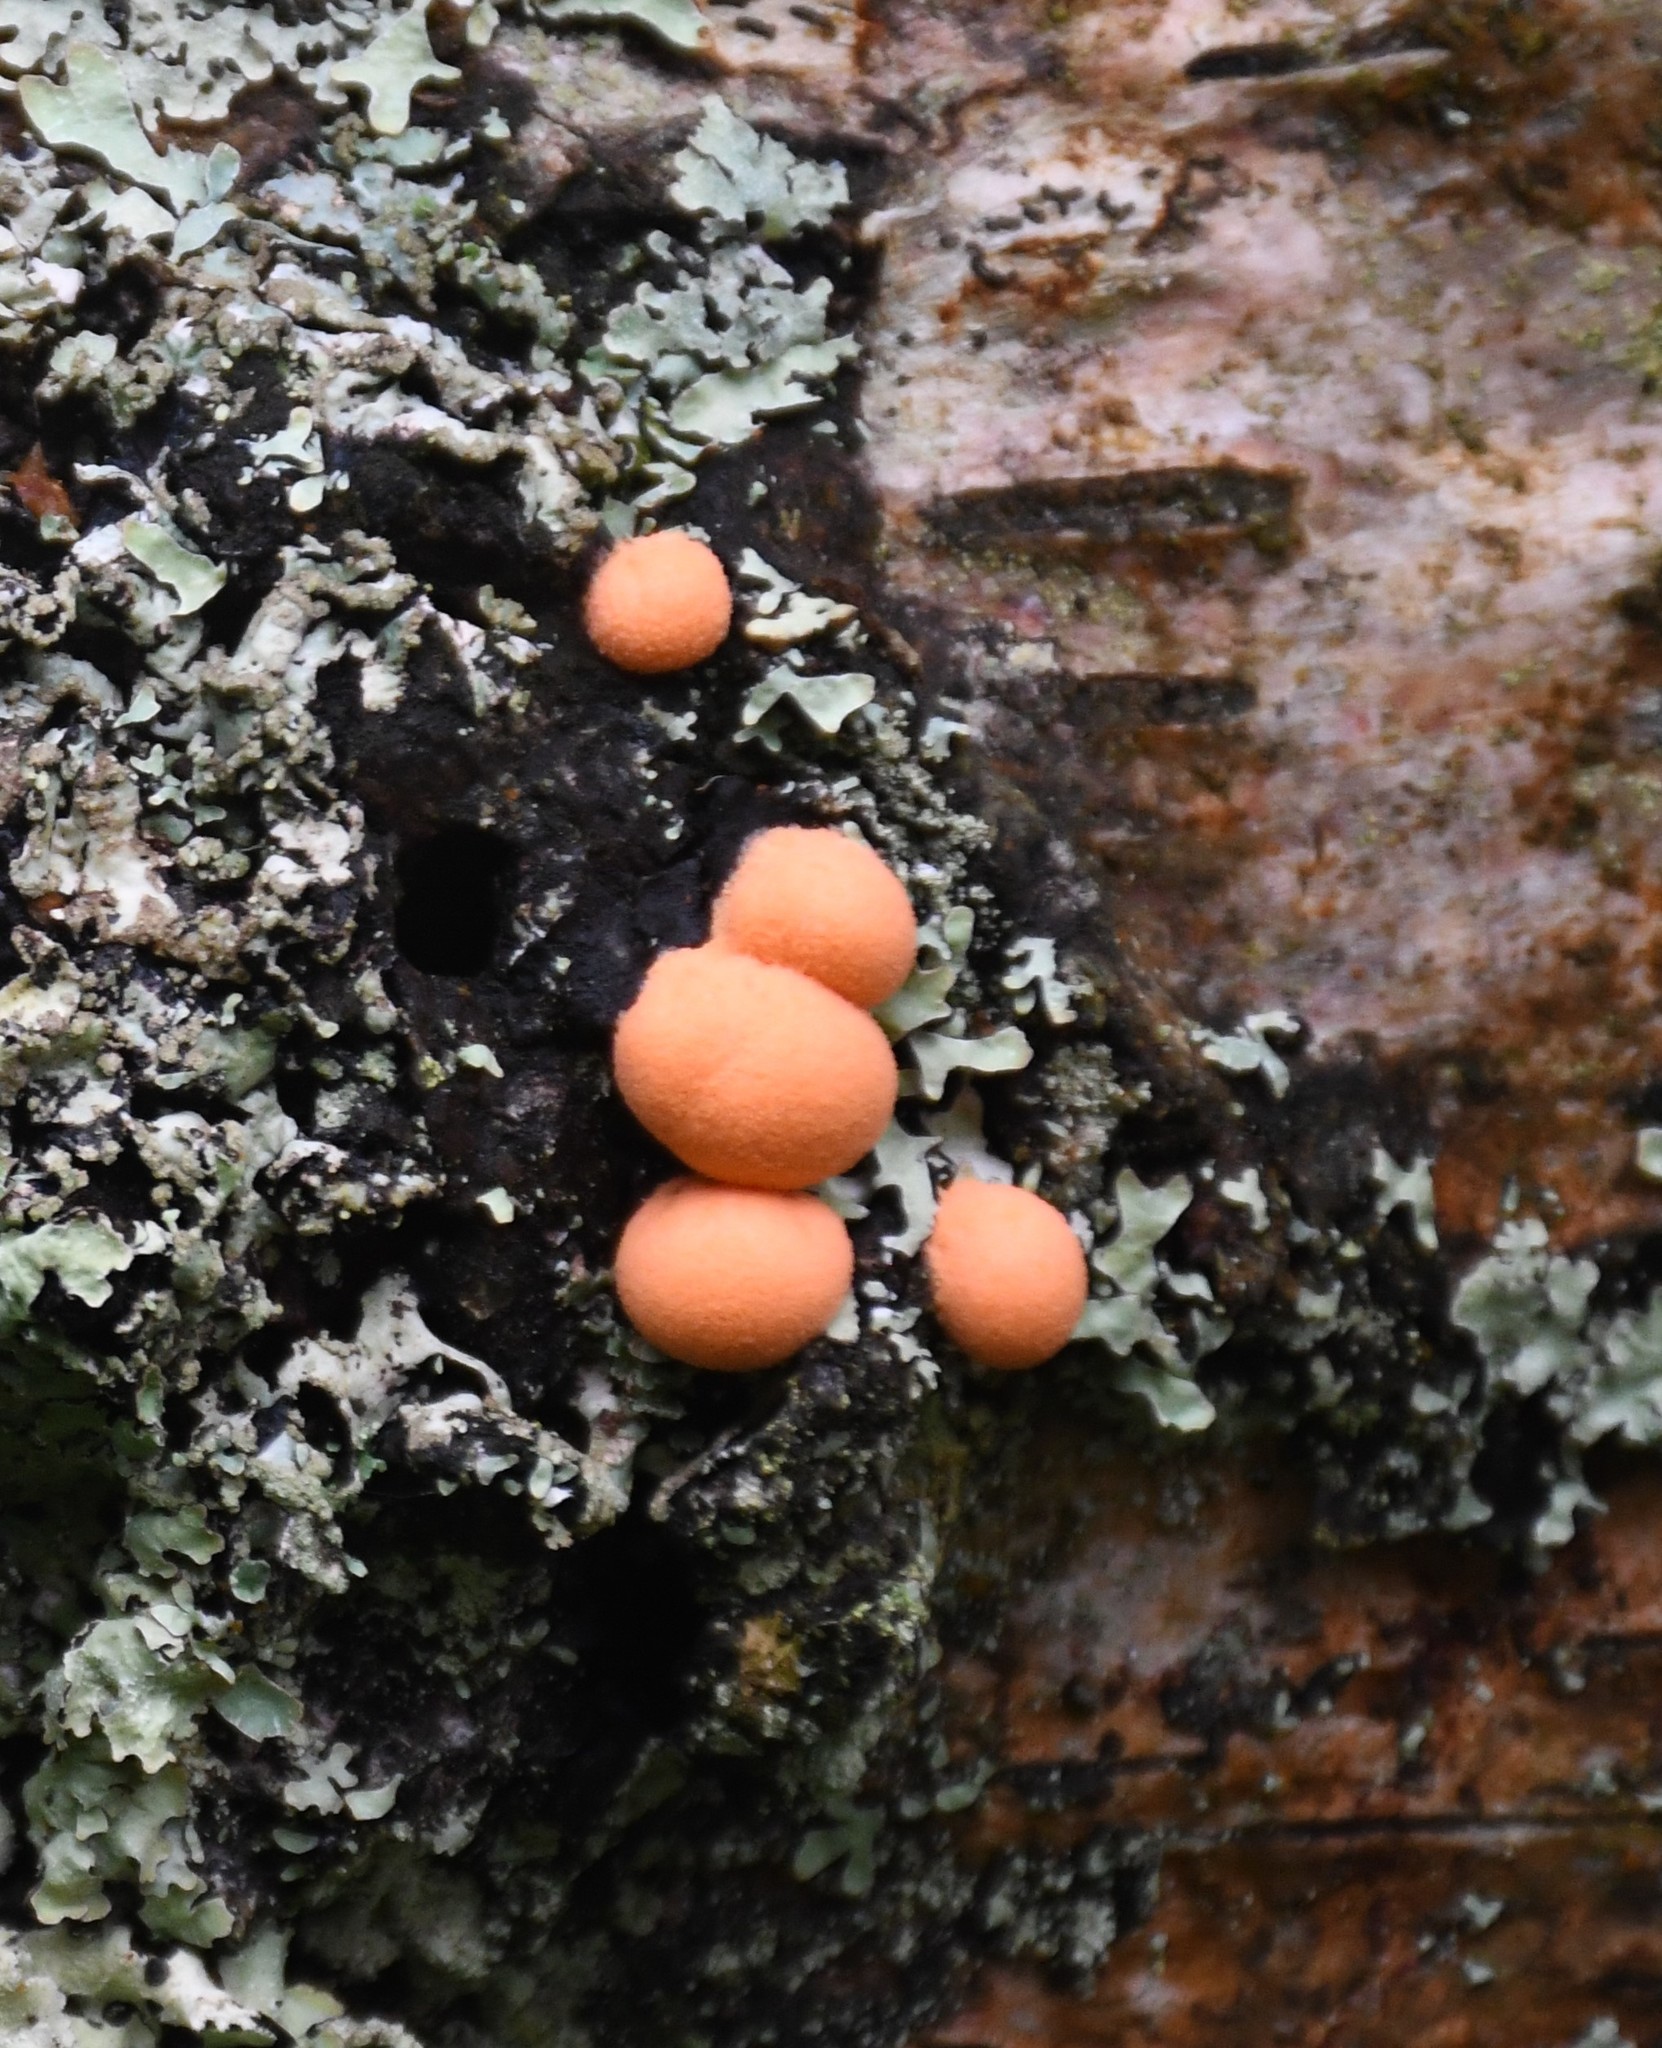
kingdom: Protozoa
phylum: Mycetozoa
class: Myxomycetes
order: Cribrariales
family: Tubiferaceae
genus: Lycogala
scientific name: Lycogala epidendrum
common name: Wolf's milk
